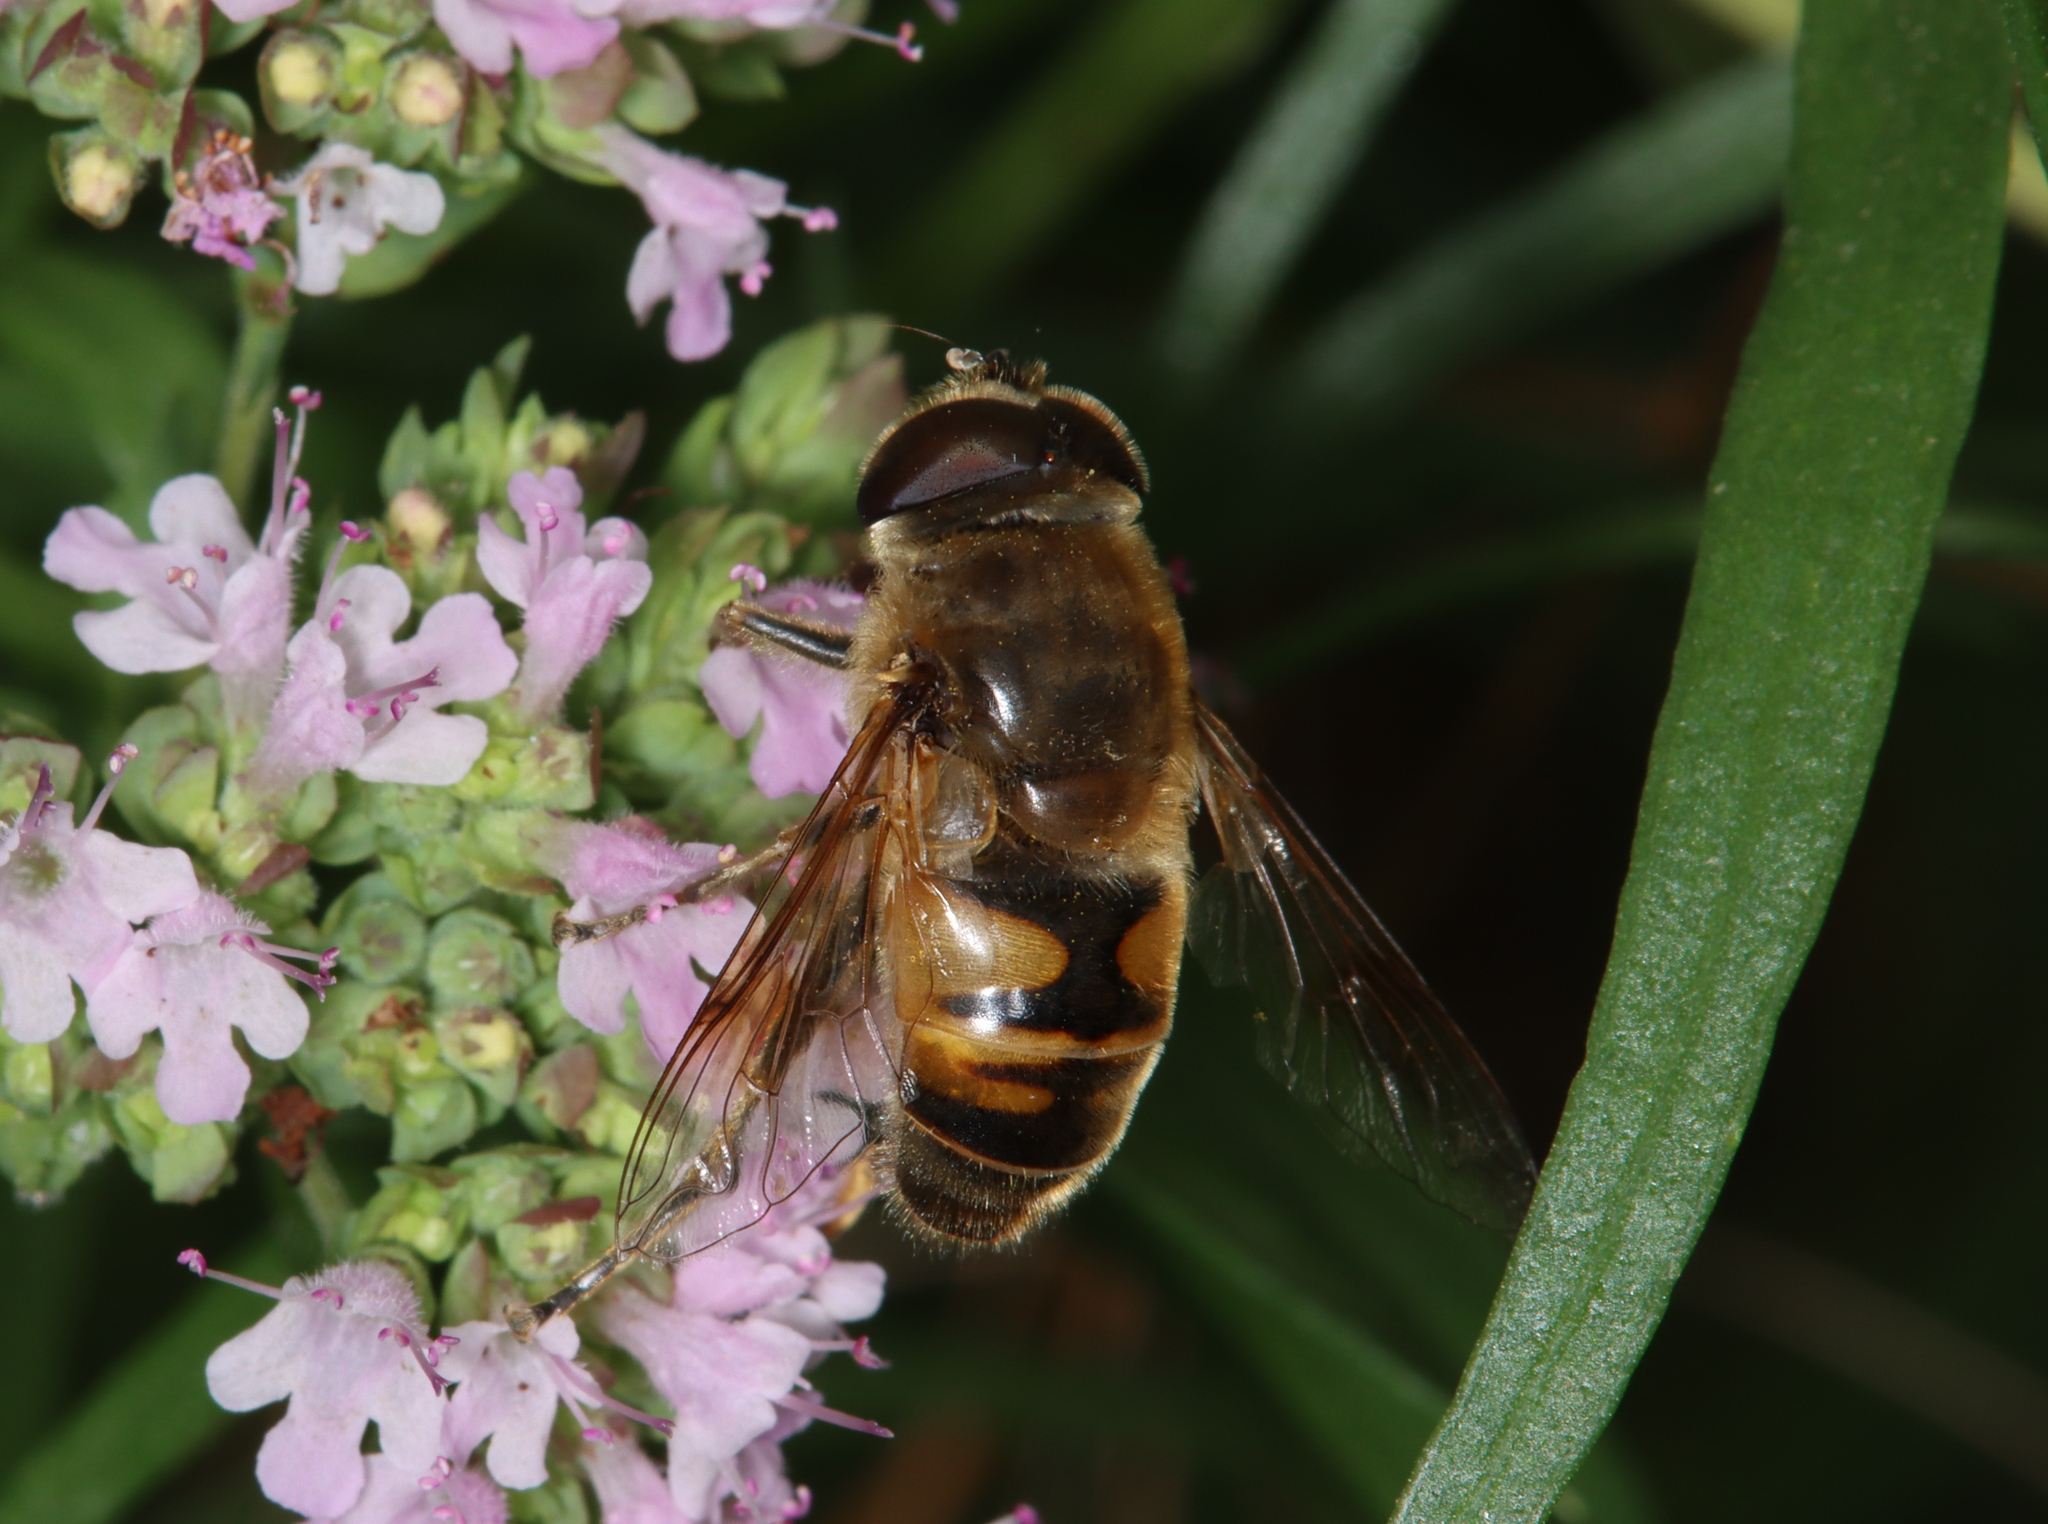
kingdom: Animalia
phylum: Arthropoda
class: Insecta
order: Diptera
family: Syrphidae
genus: Eristalis
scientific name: Eristalis tenax
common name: Drone fly
